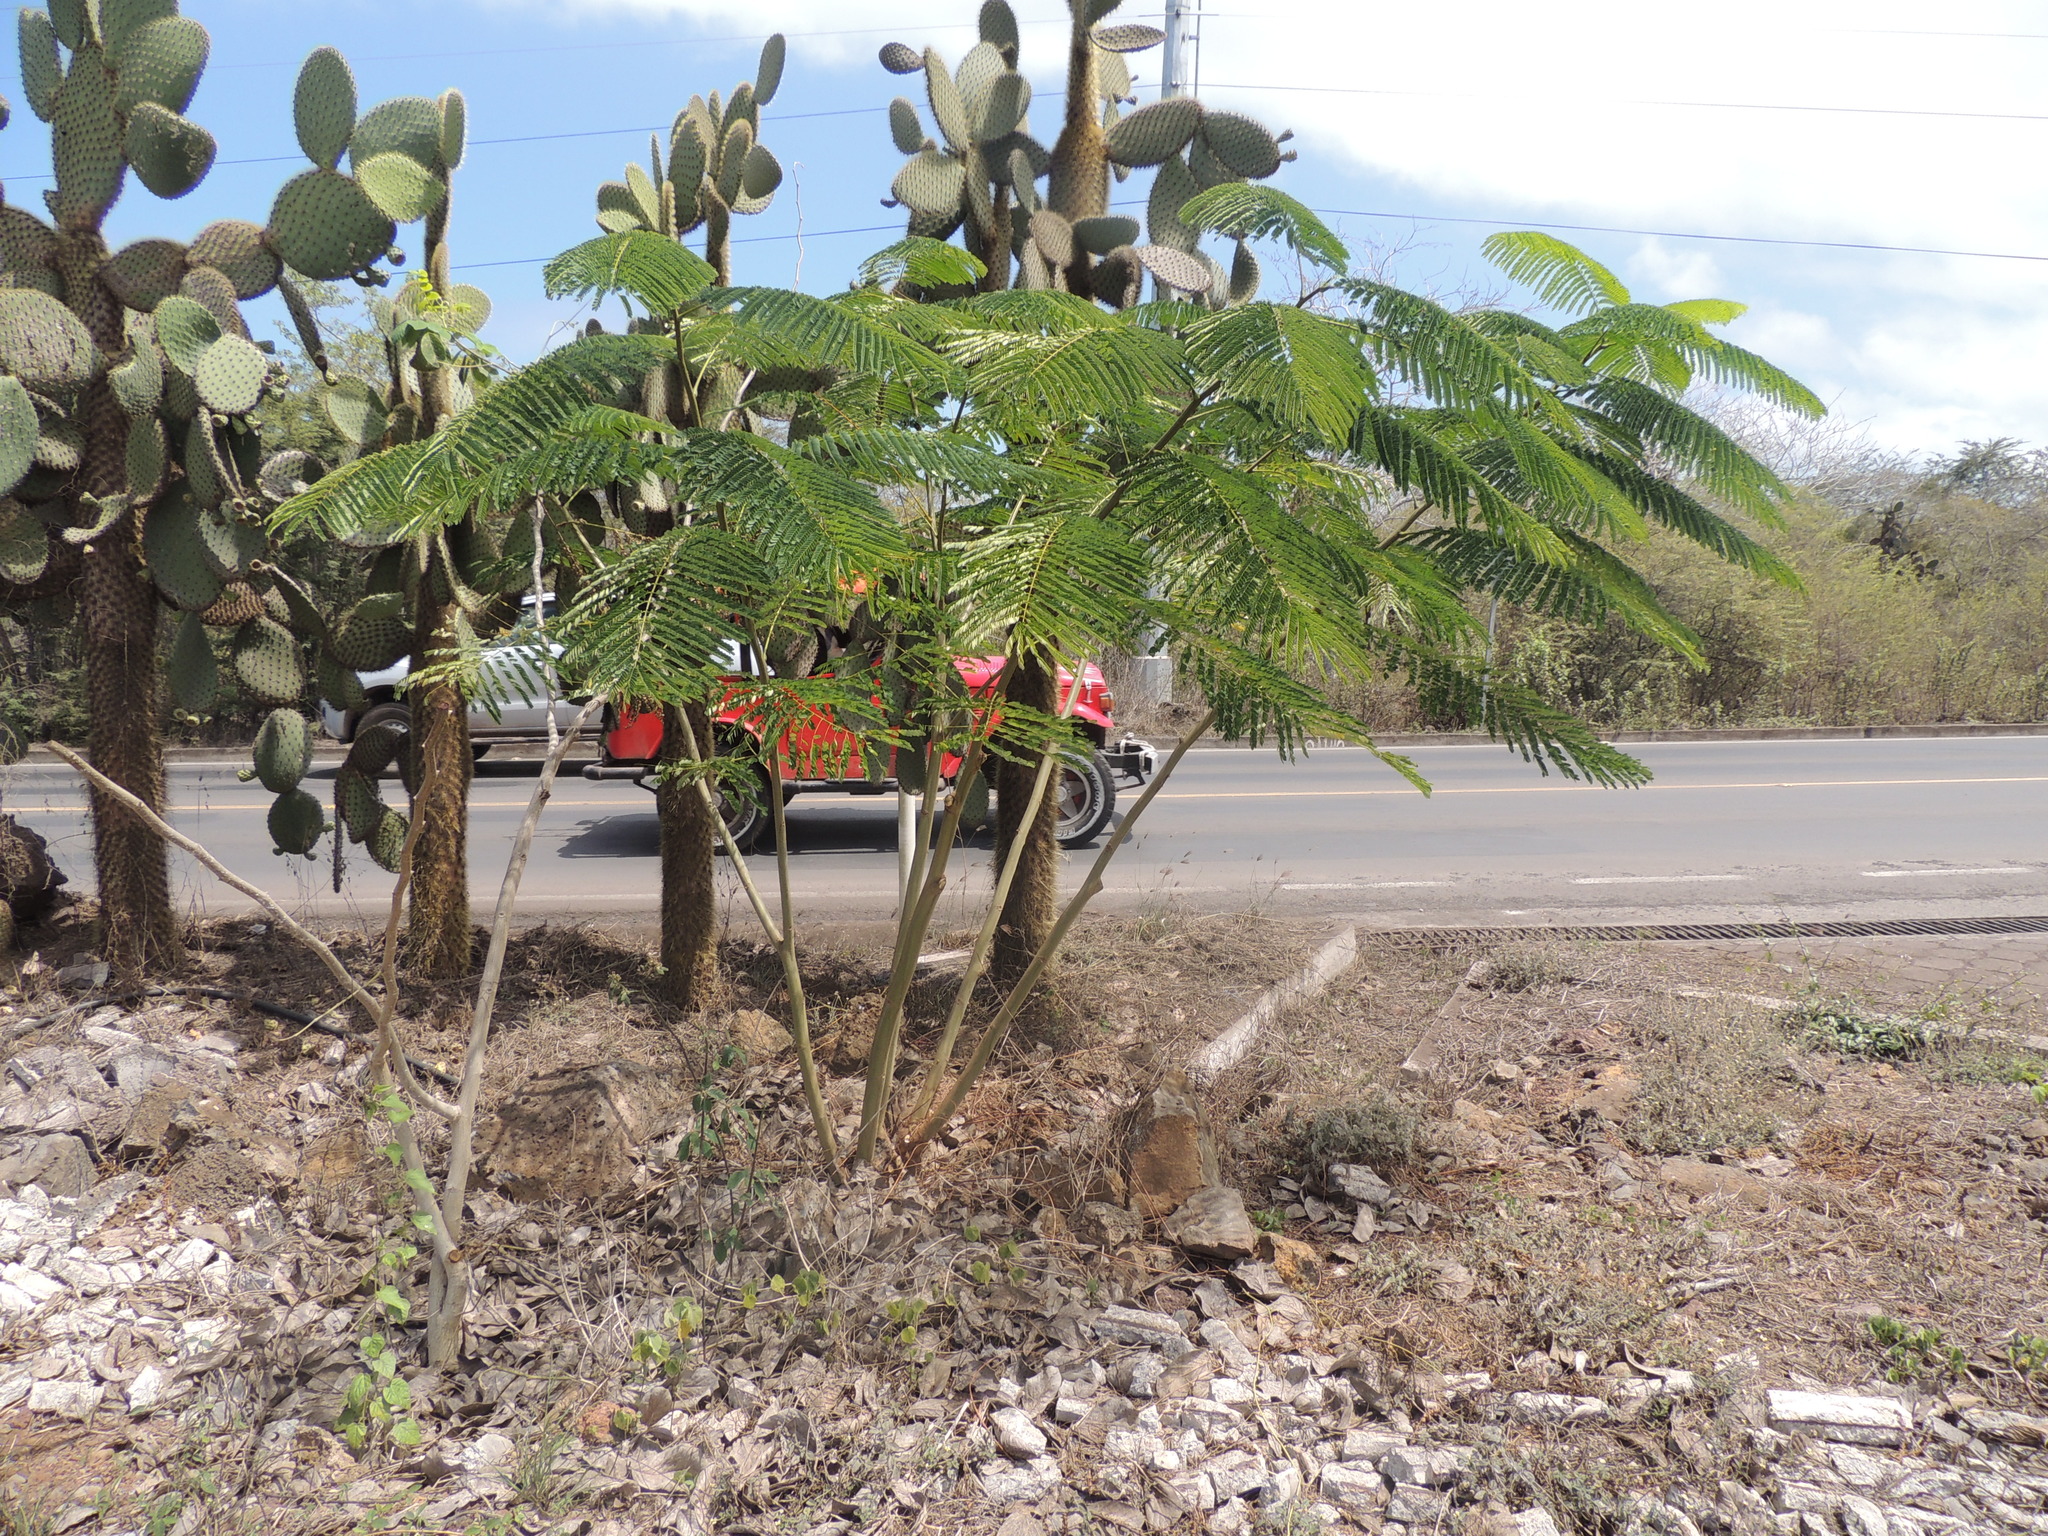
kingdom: Plantae
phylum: Tracheophyta
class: Magnoliopsida
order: Fabales
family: Fabaceae
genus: Delonix
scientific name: Delonix regia
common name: Royal poinciana
